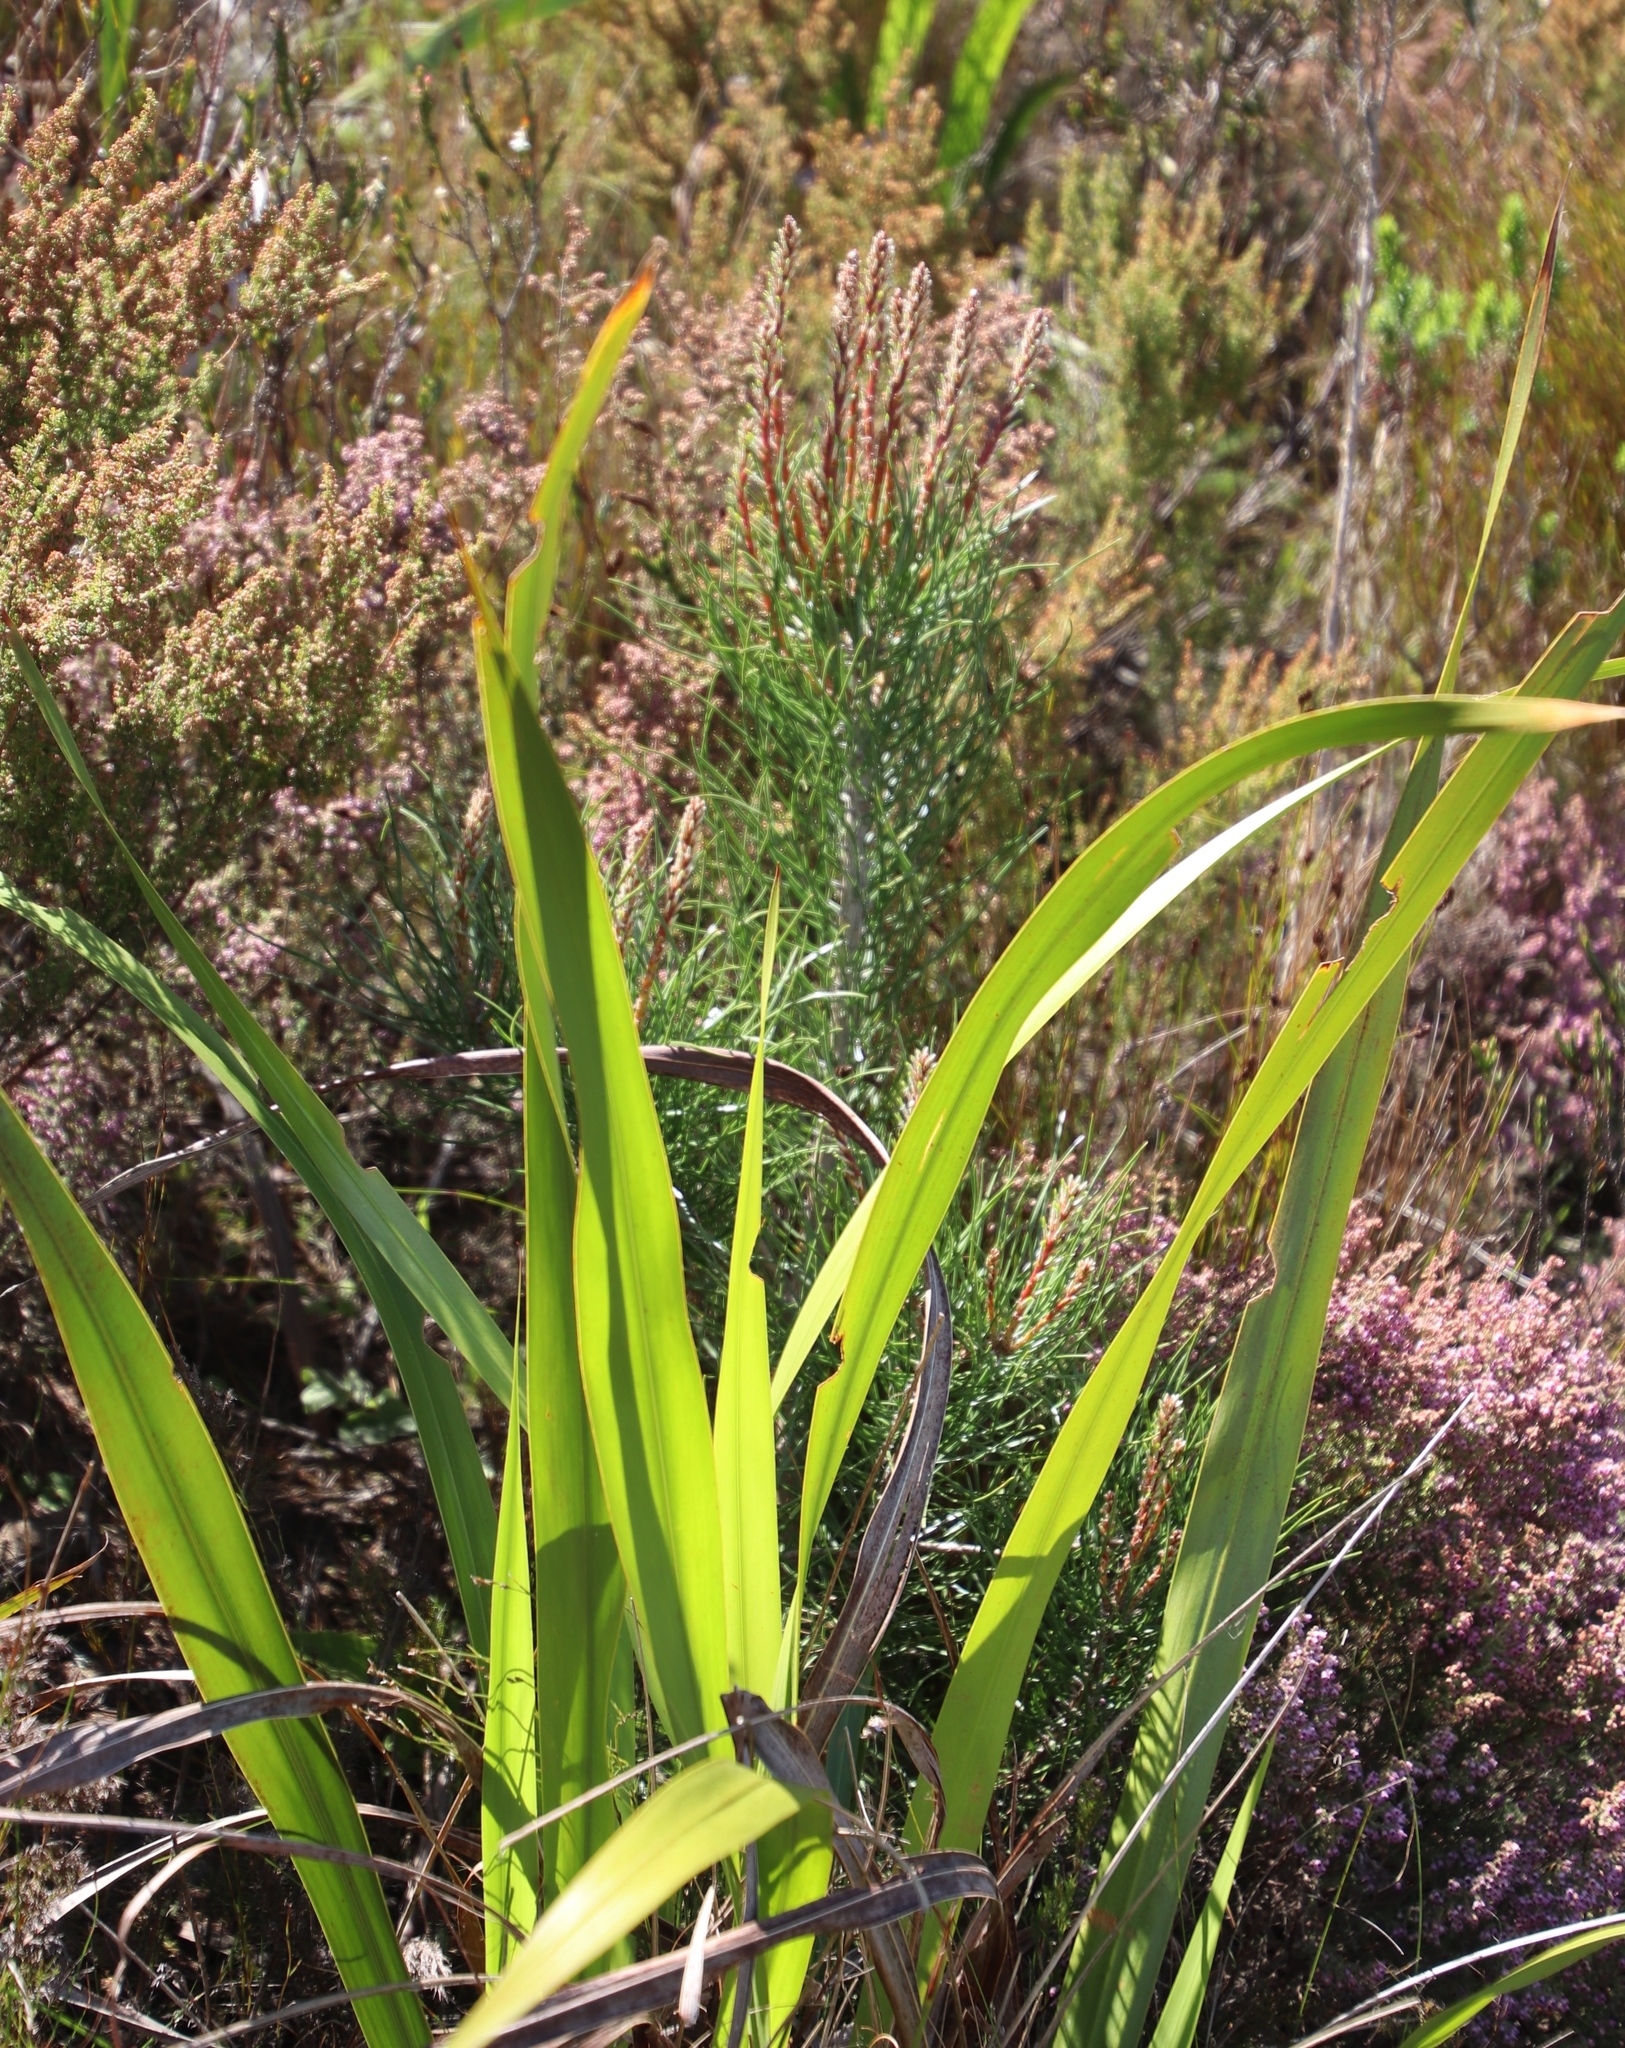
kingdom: Plantae
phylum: Tracheophyta
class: Pinopsida
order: Pinales
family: Pinaceae
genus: Pinus
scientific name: Pinus pinaster
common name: Maritime pine
